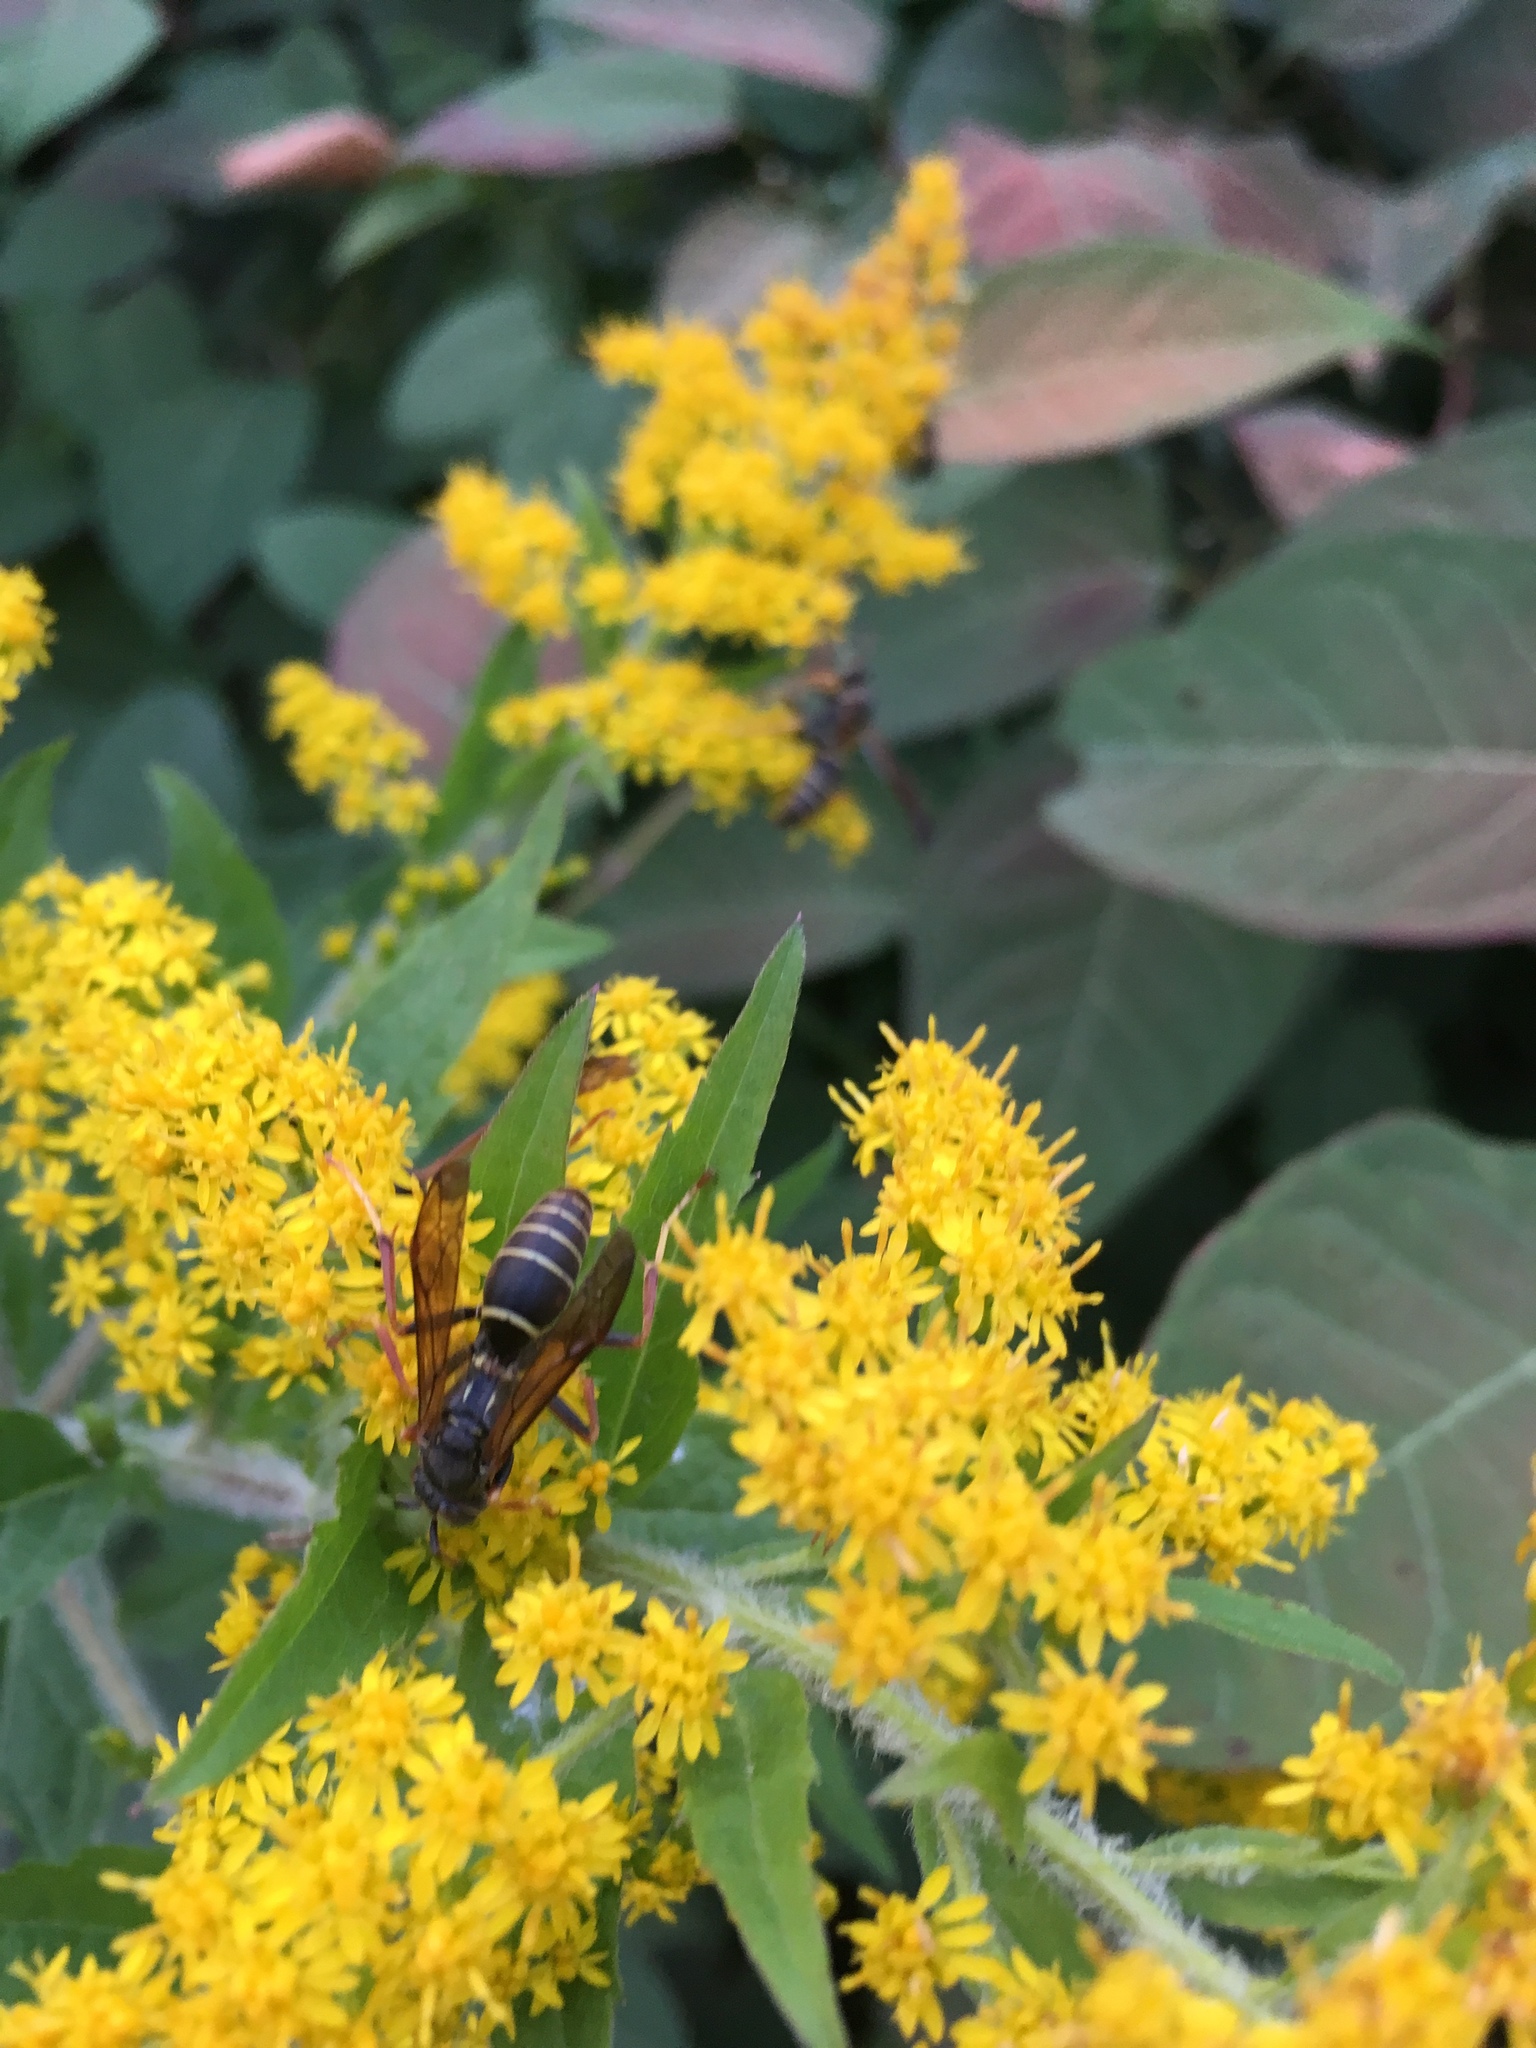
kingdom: Animalia
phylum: Arthropoda
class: Insecta
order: Hymenoptera
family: Eumenidae
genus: Polistes
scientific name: Polistes fuscatus
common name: Dark paper wasp
